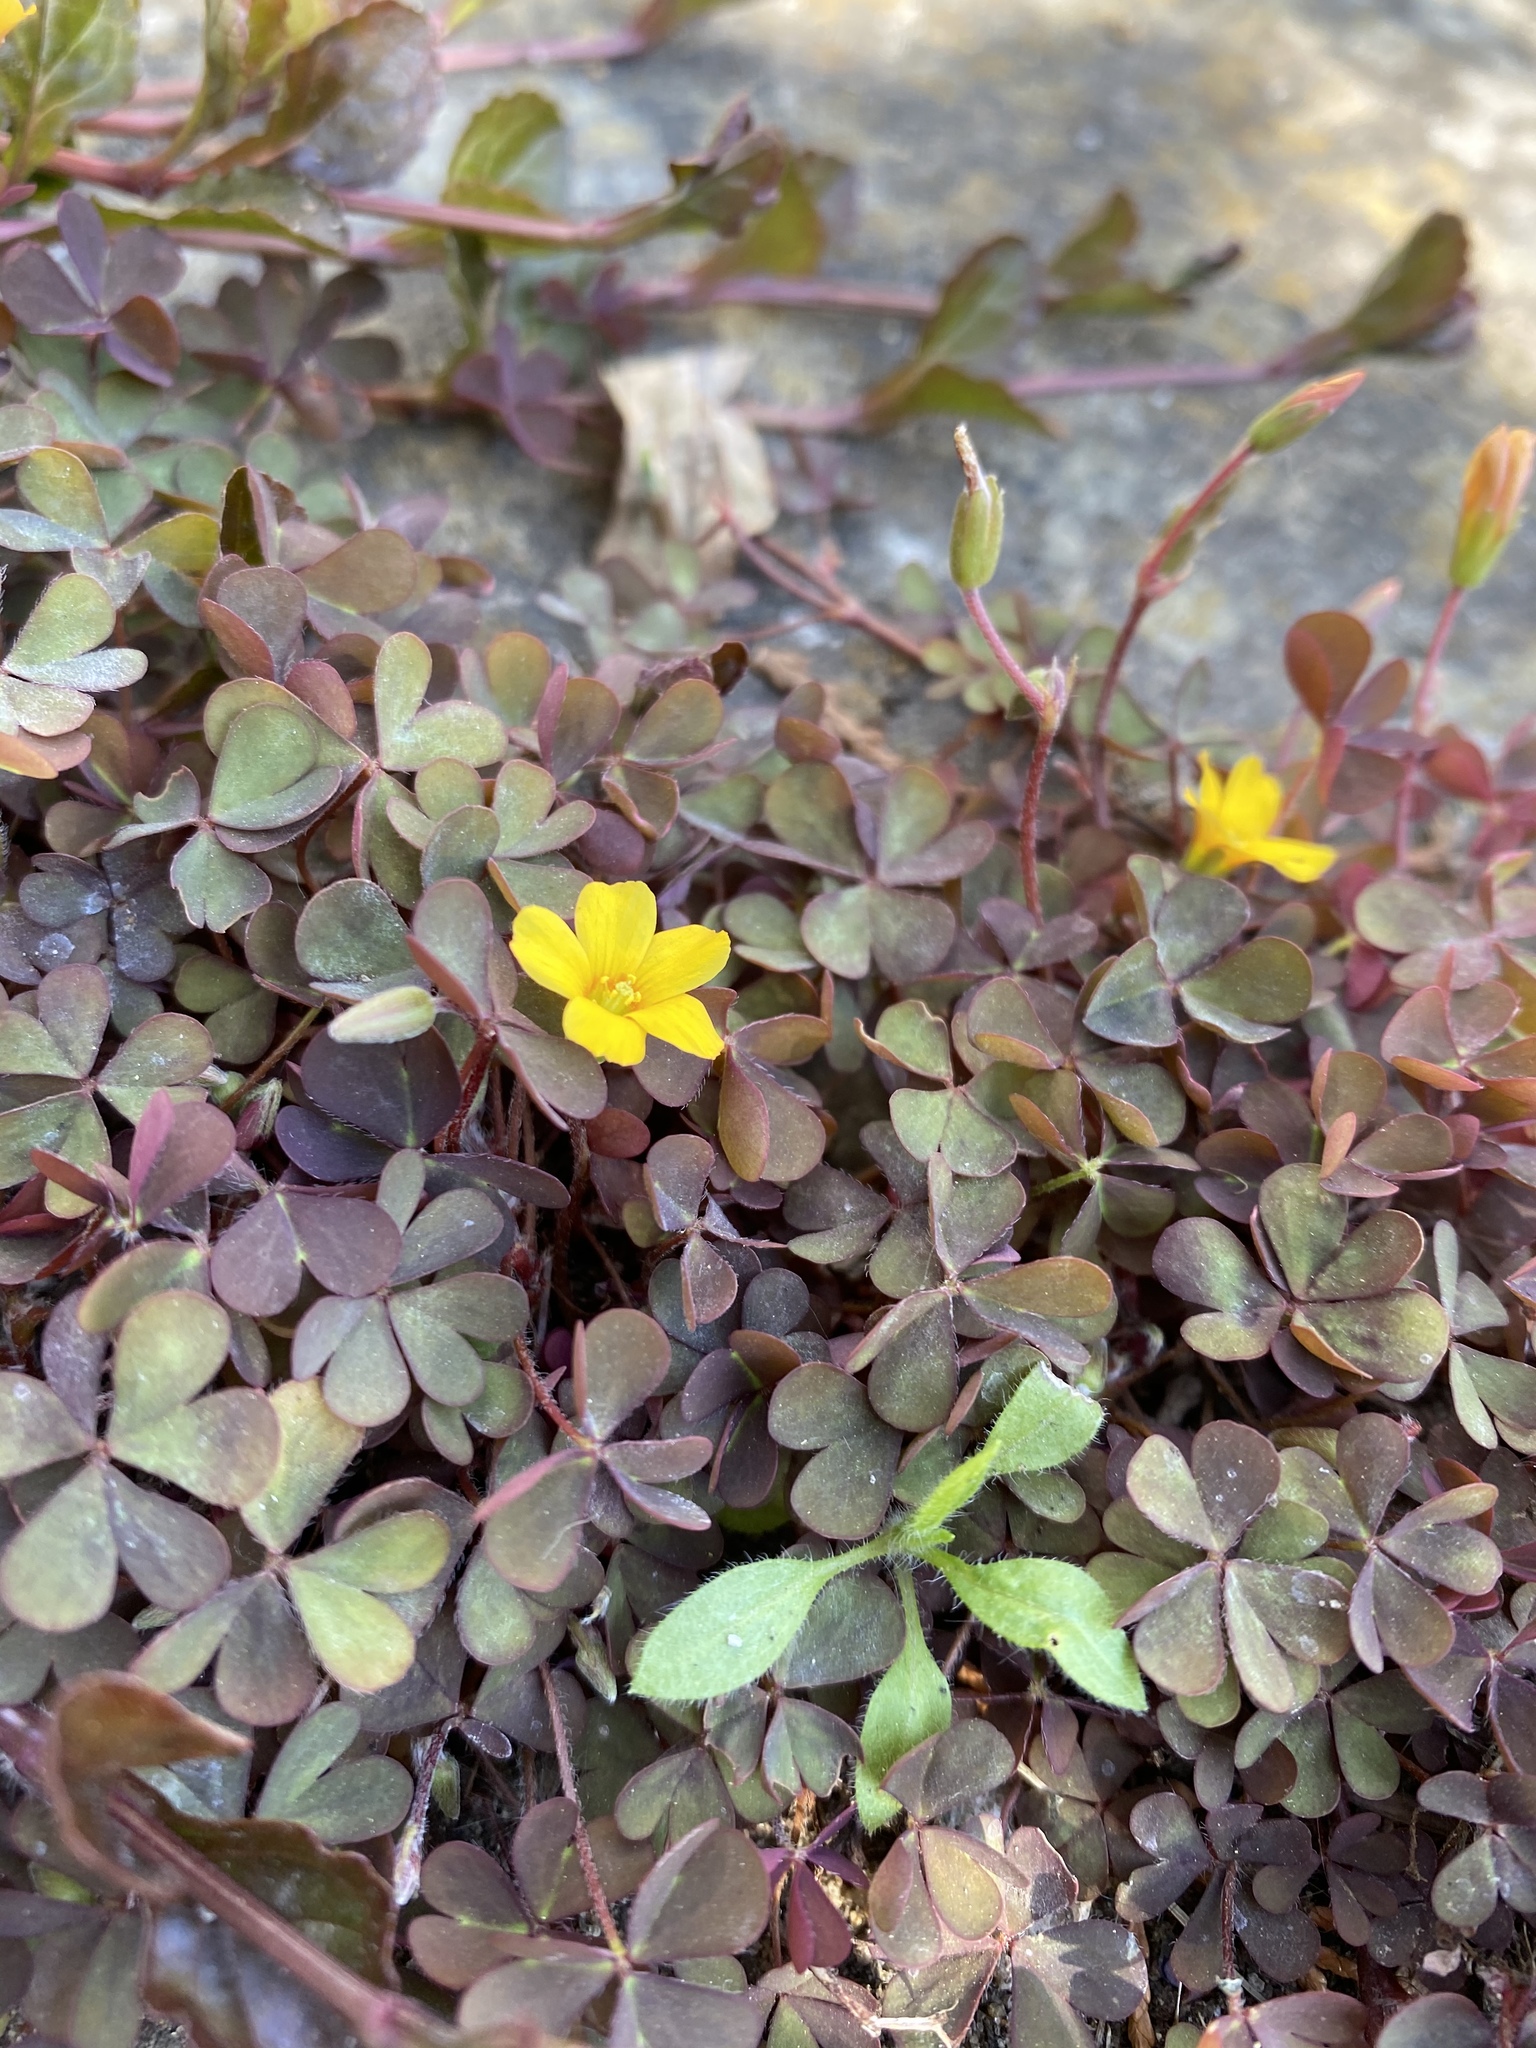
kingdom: Plantae
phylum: Tracheophyta
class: Magnoliopsida
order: Oxalidales
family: Oxalidaceae
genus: Oxalis
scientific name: Oxalis corniculata
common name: Procumbent yellow-sorrel
